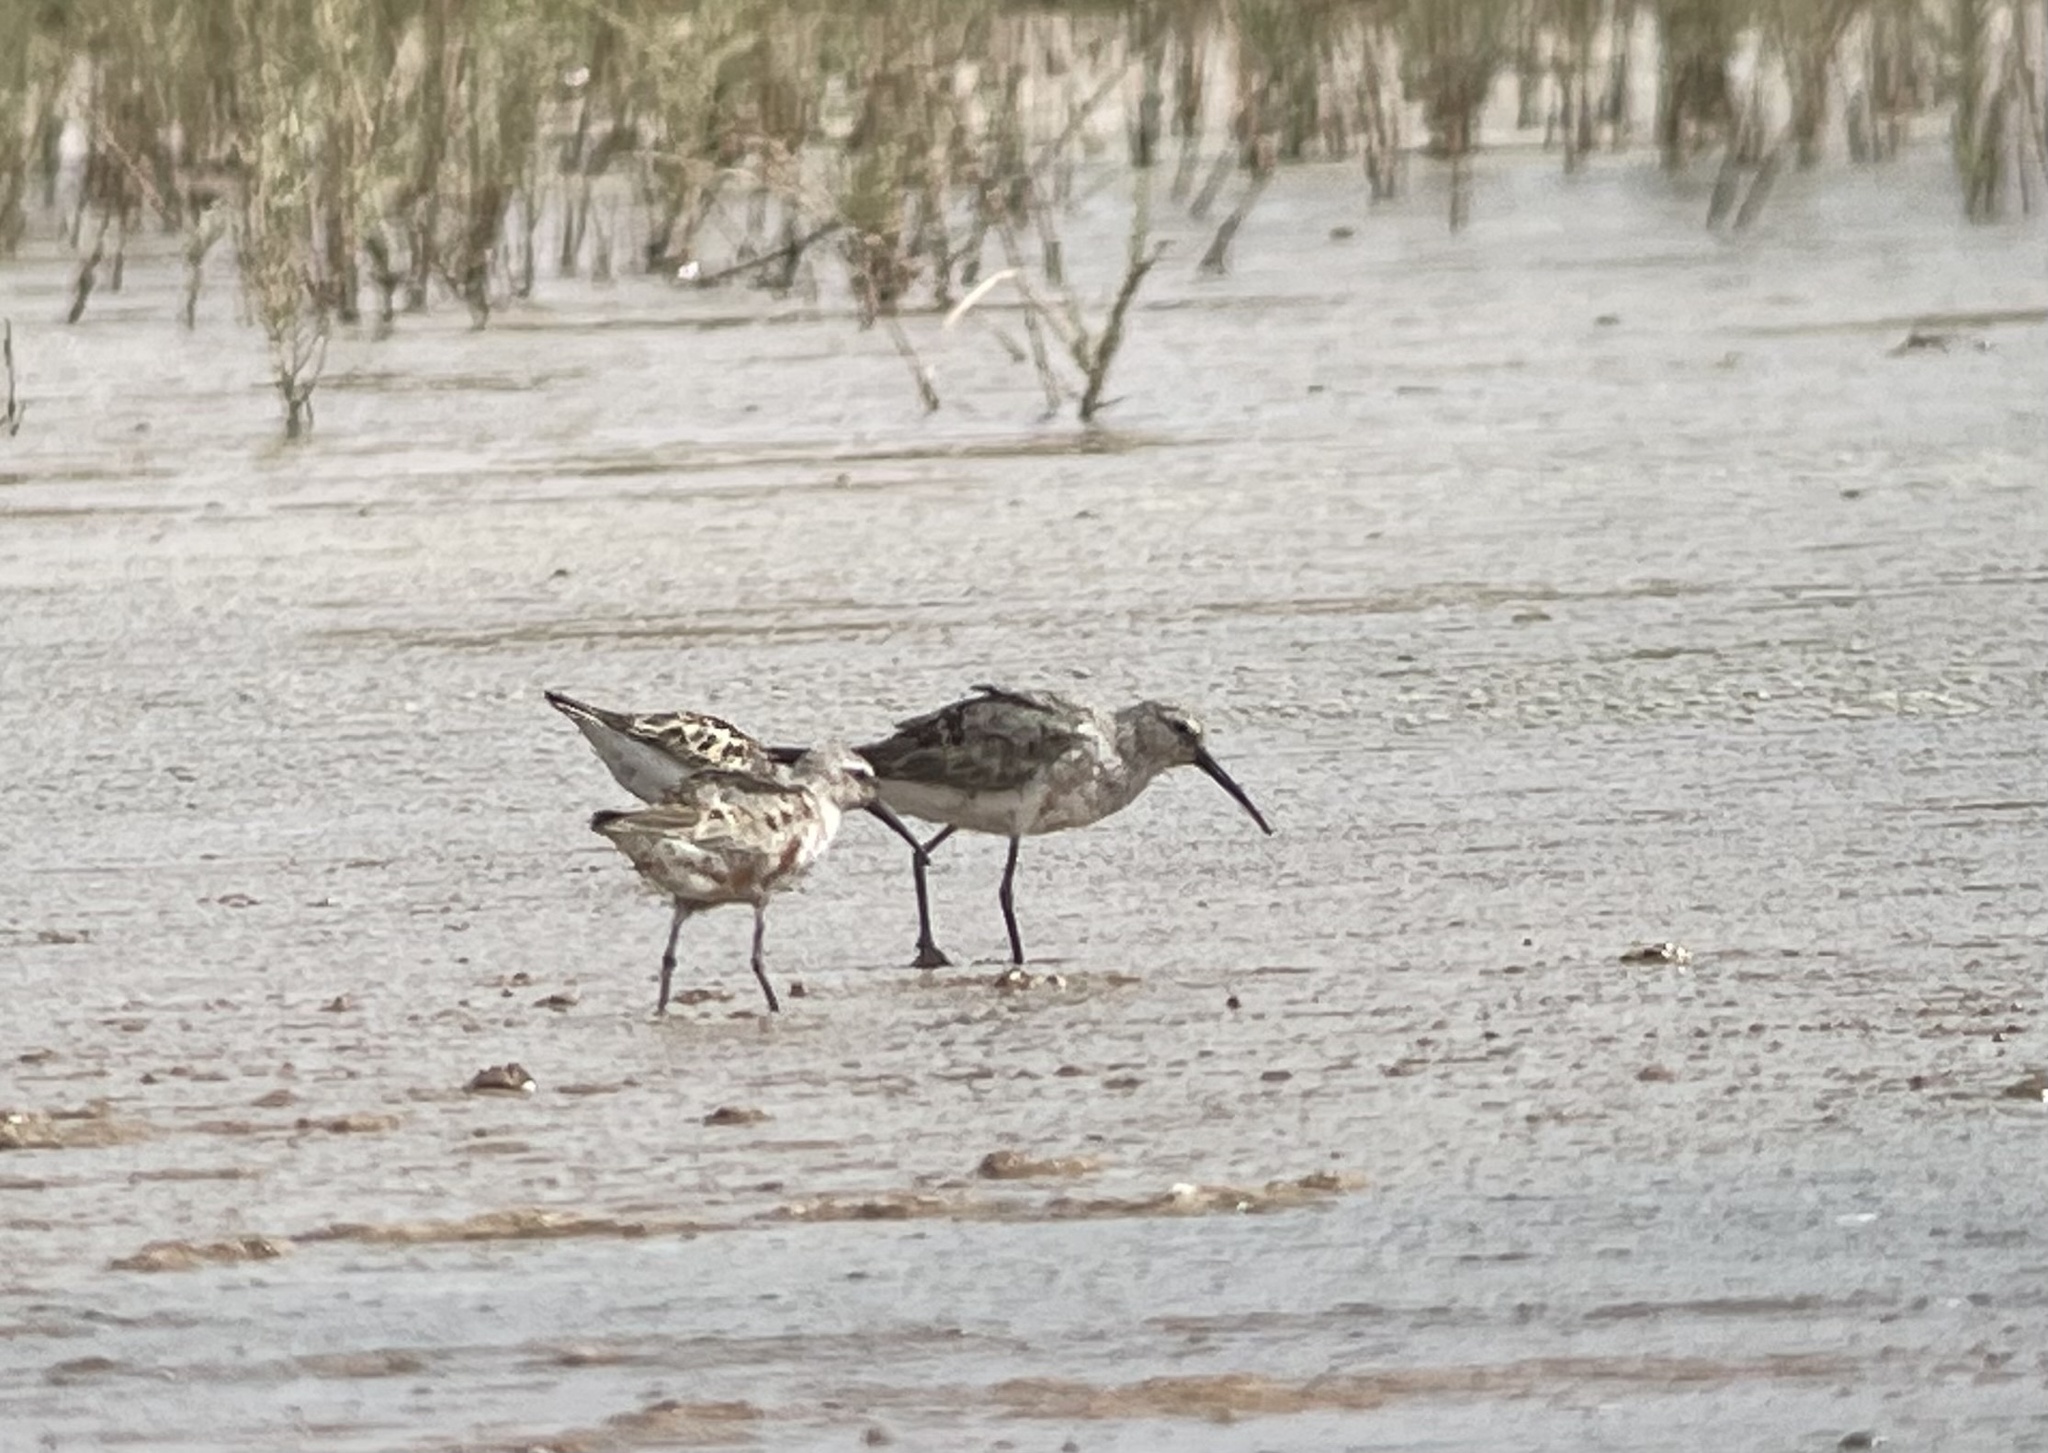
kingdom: Animalia
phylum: Chordata
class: Aves
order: Charadriiformes
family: Scolopacidae
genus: Calidris
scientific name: Calidris ferruginea
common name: Curlew sandpiper
